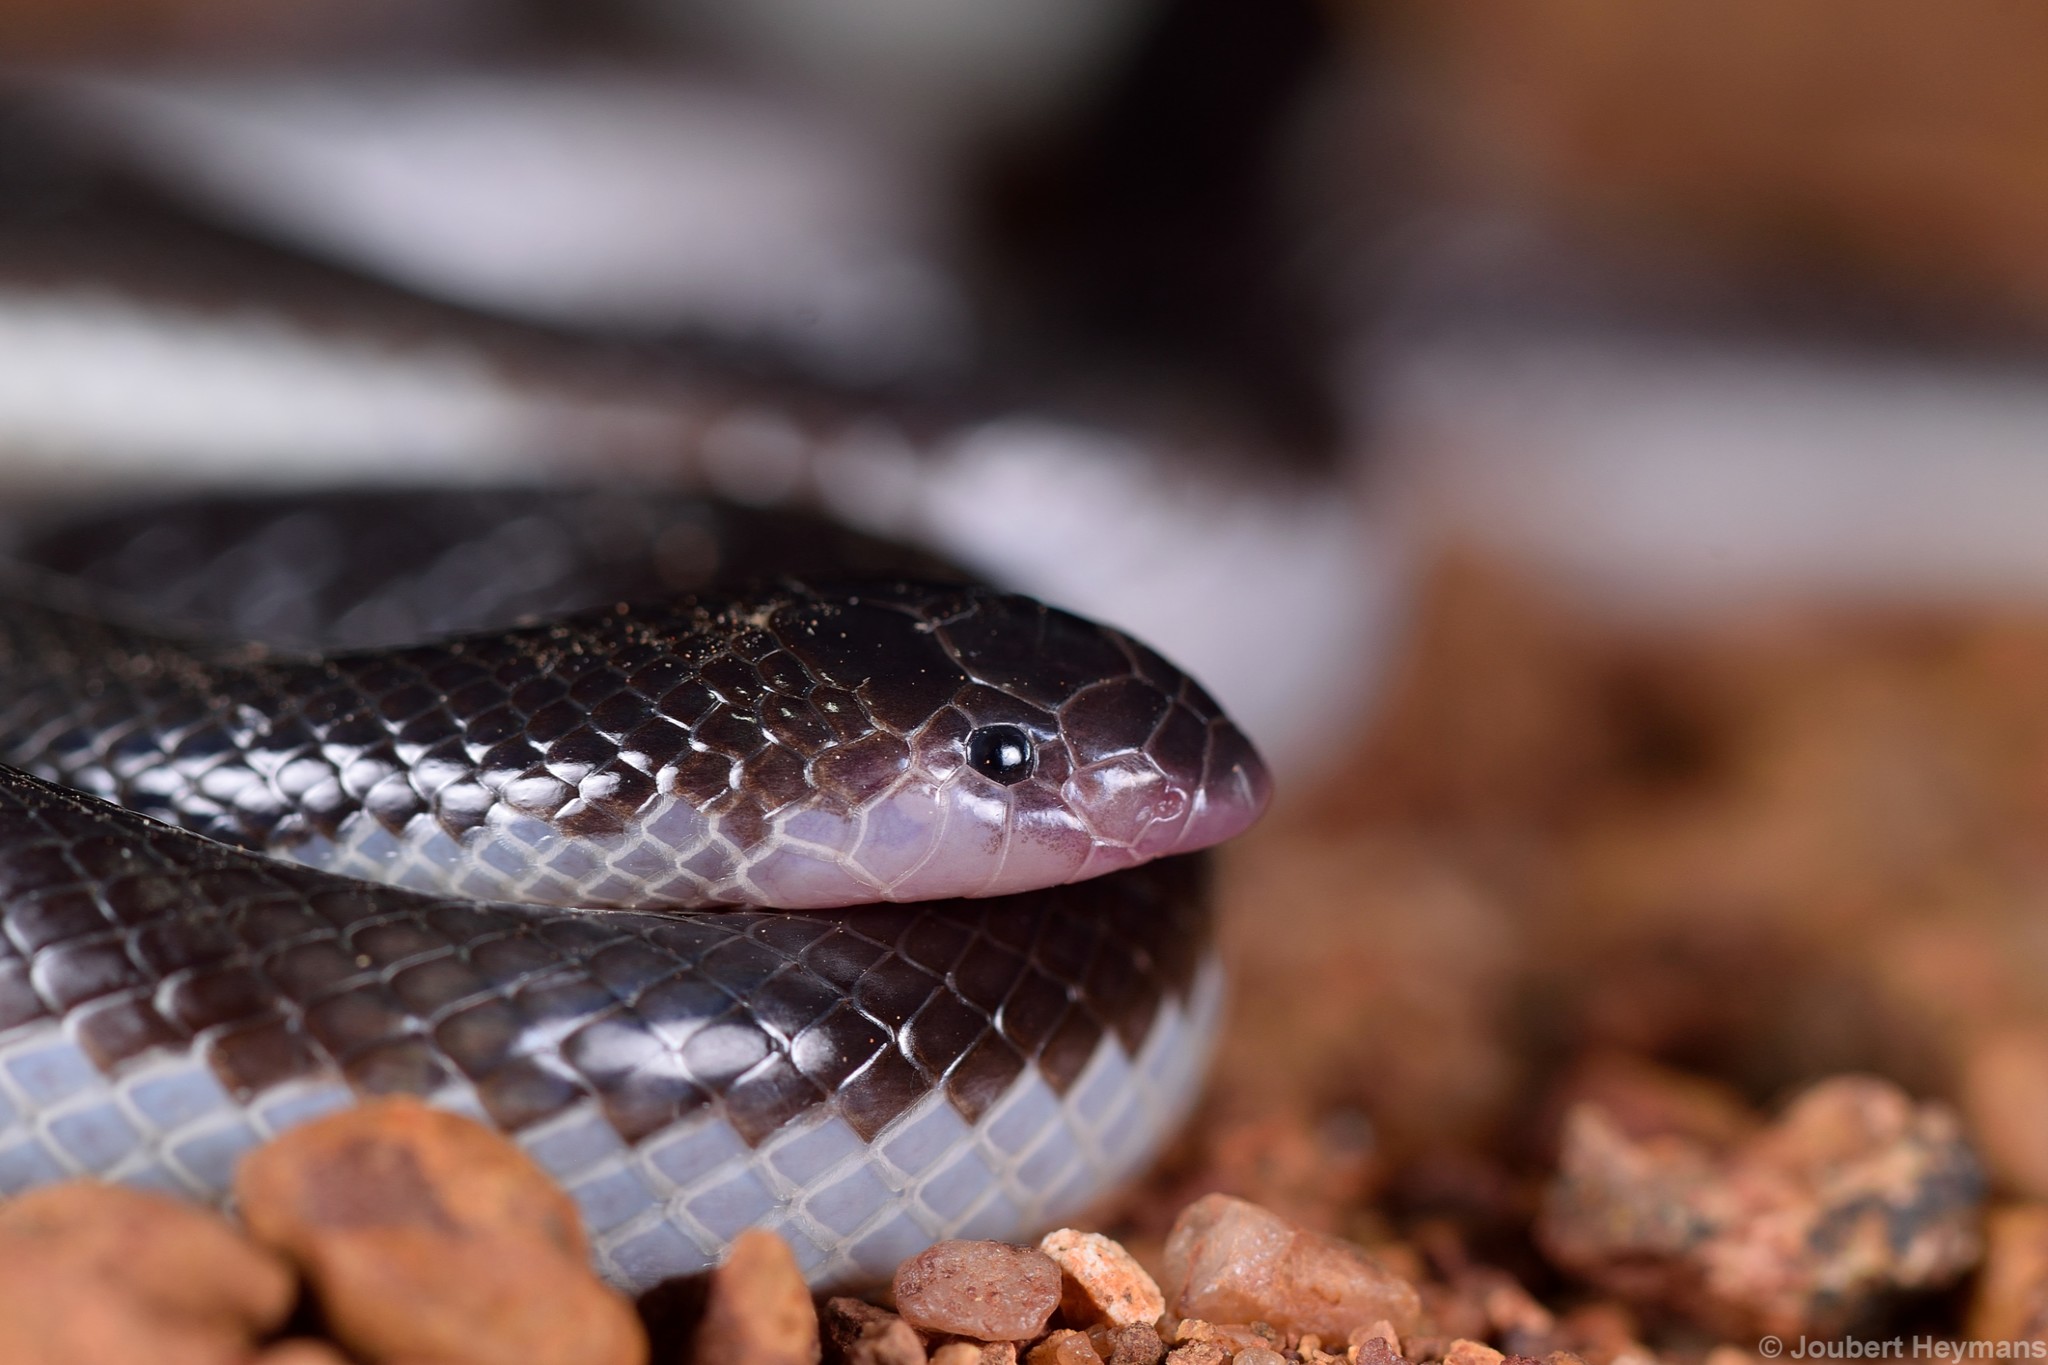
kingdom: Animalia
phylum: Chordata
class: Squamata
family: Atractaspididae
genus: Atractaspis
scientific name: Atractaspis duerdeni
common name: Beaked burrowing asp
